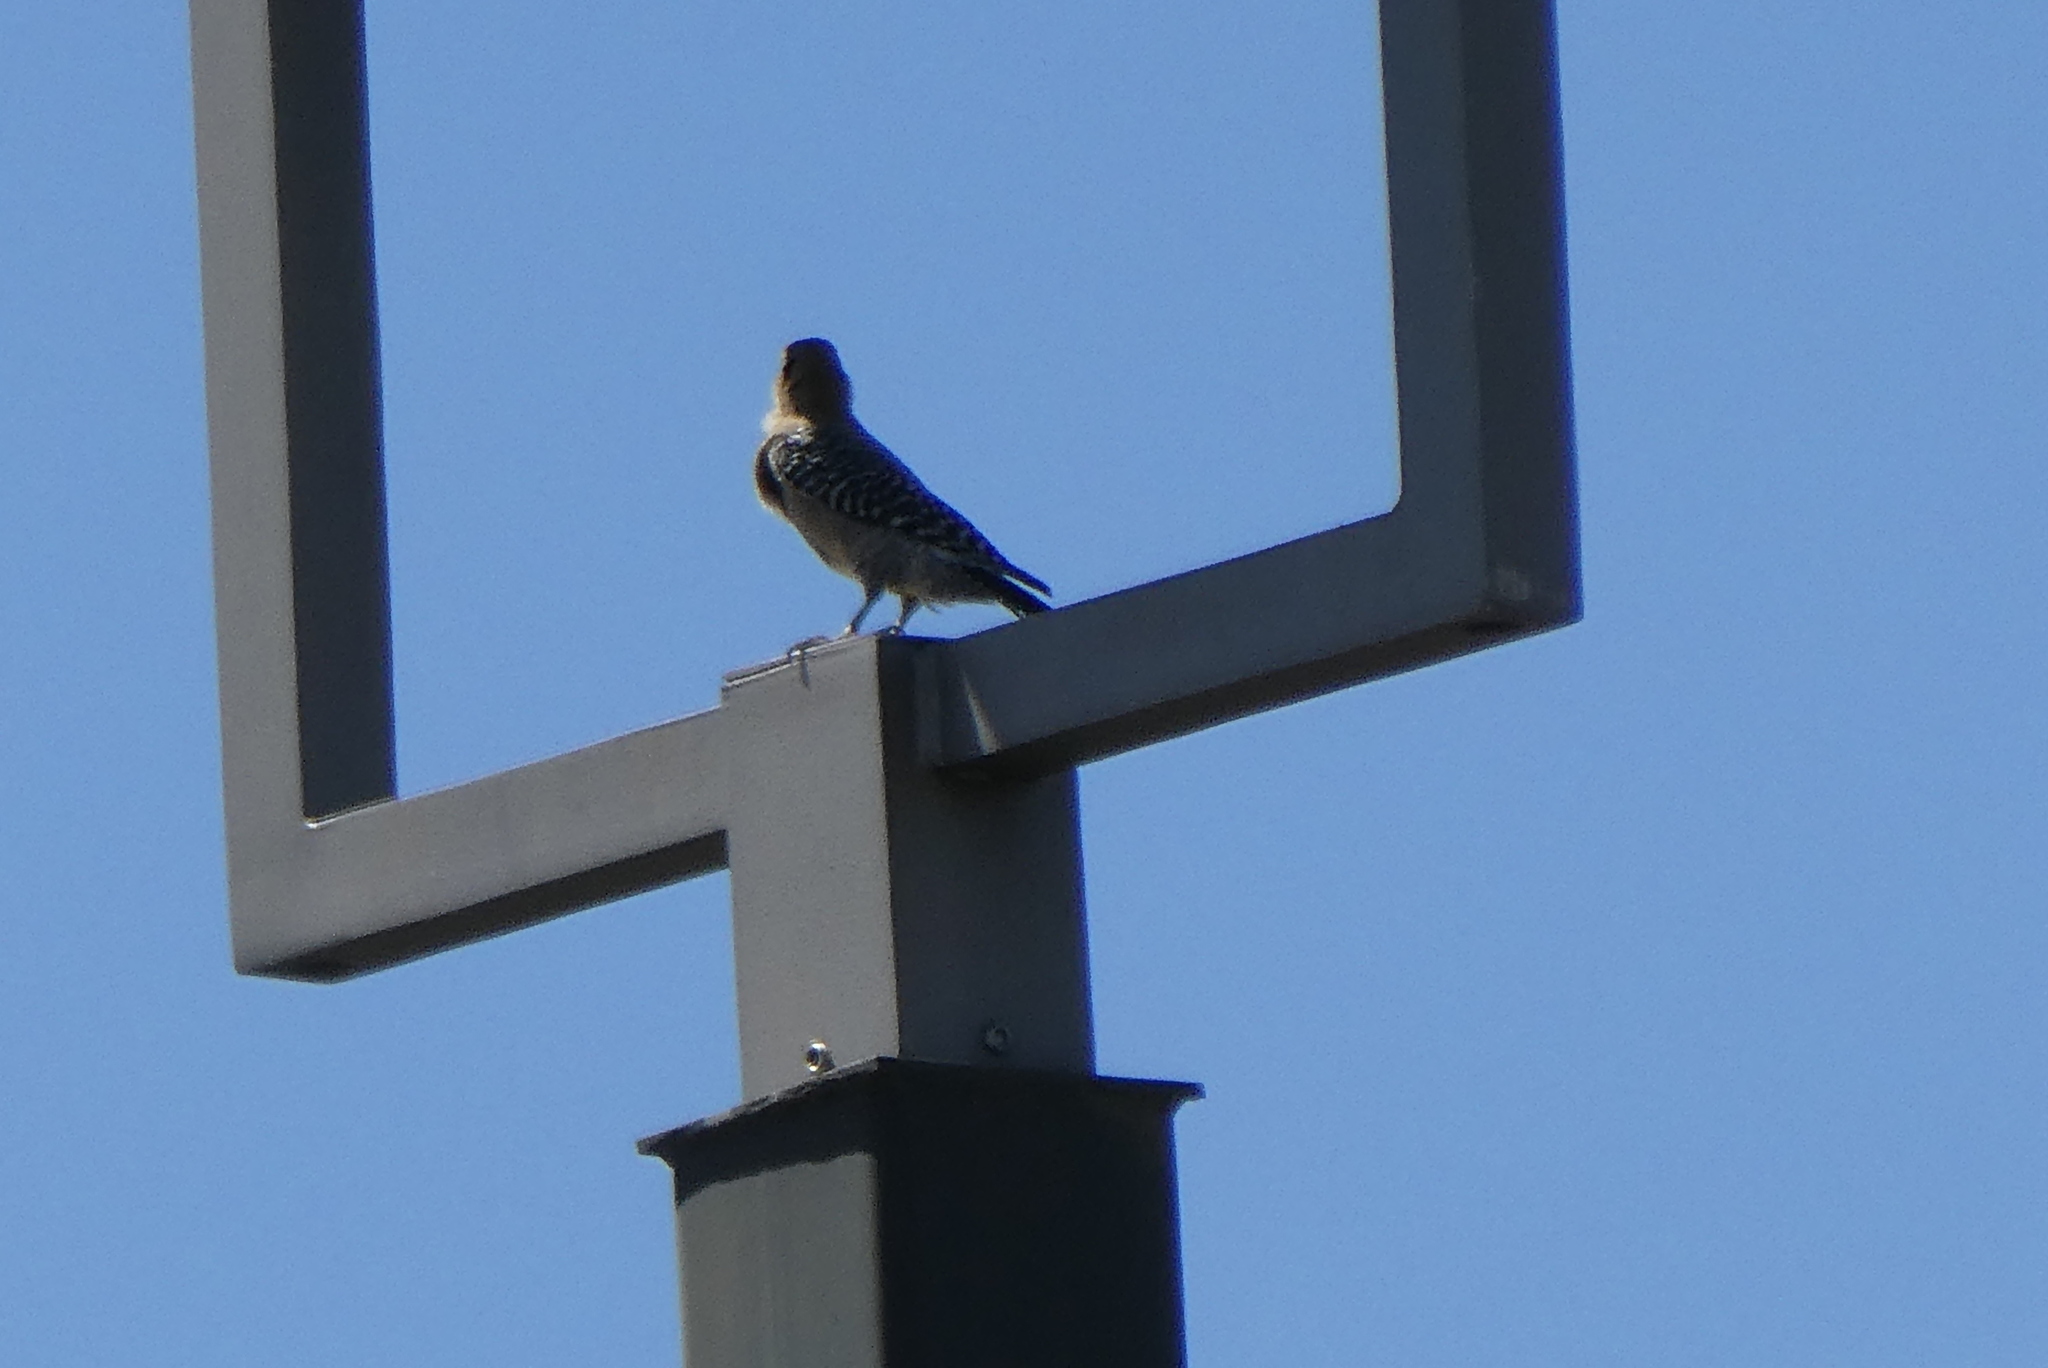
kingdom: Animalia
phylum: Chordata
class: Aves
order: Piciformes
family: Picidae
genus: Melanerpes
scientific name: Melanerpes uropygialis
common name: Gila woodpecker
